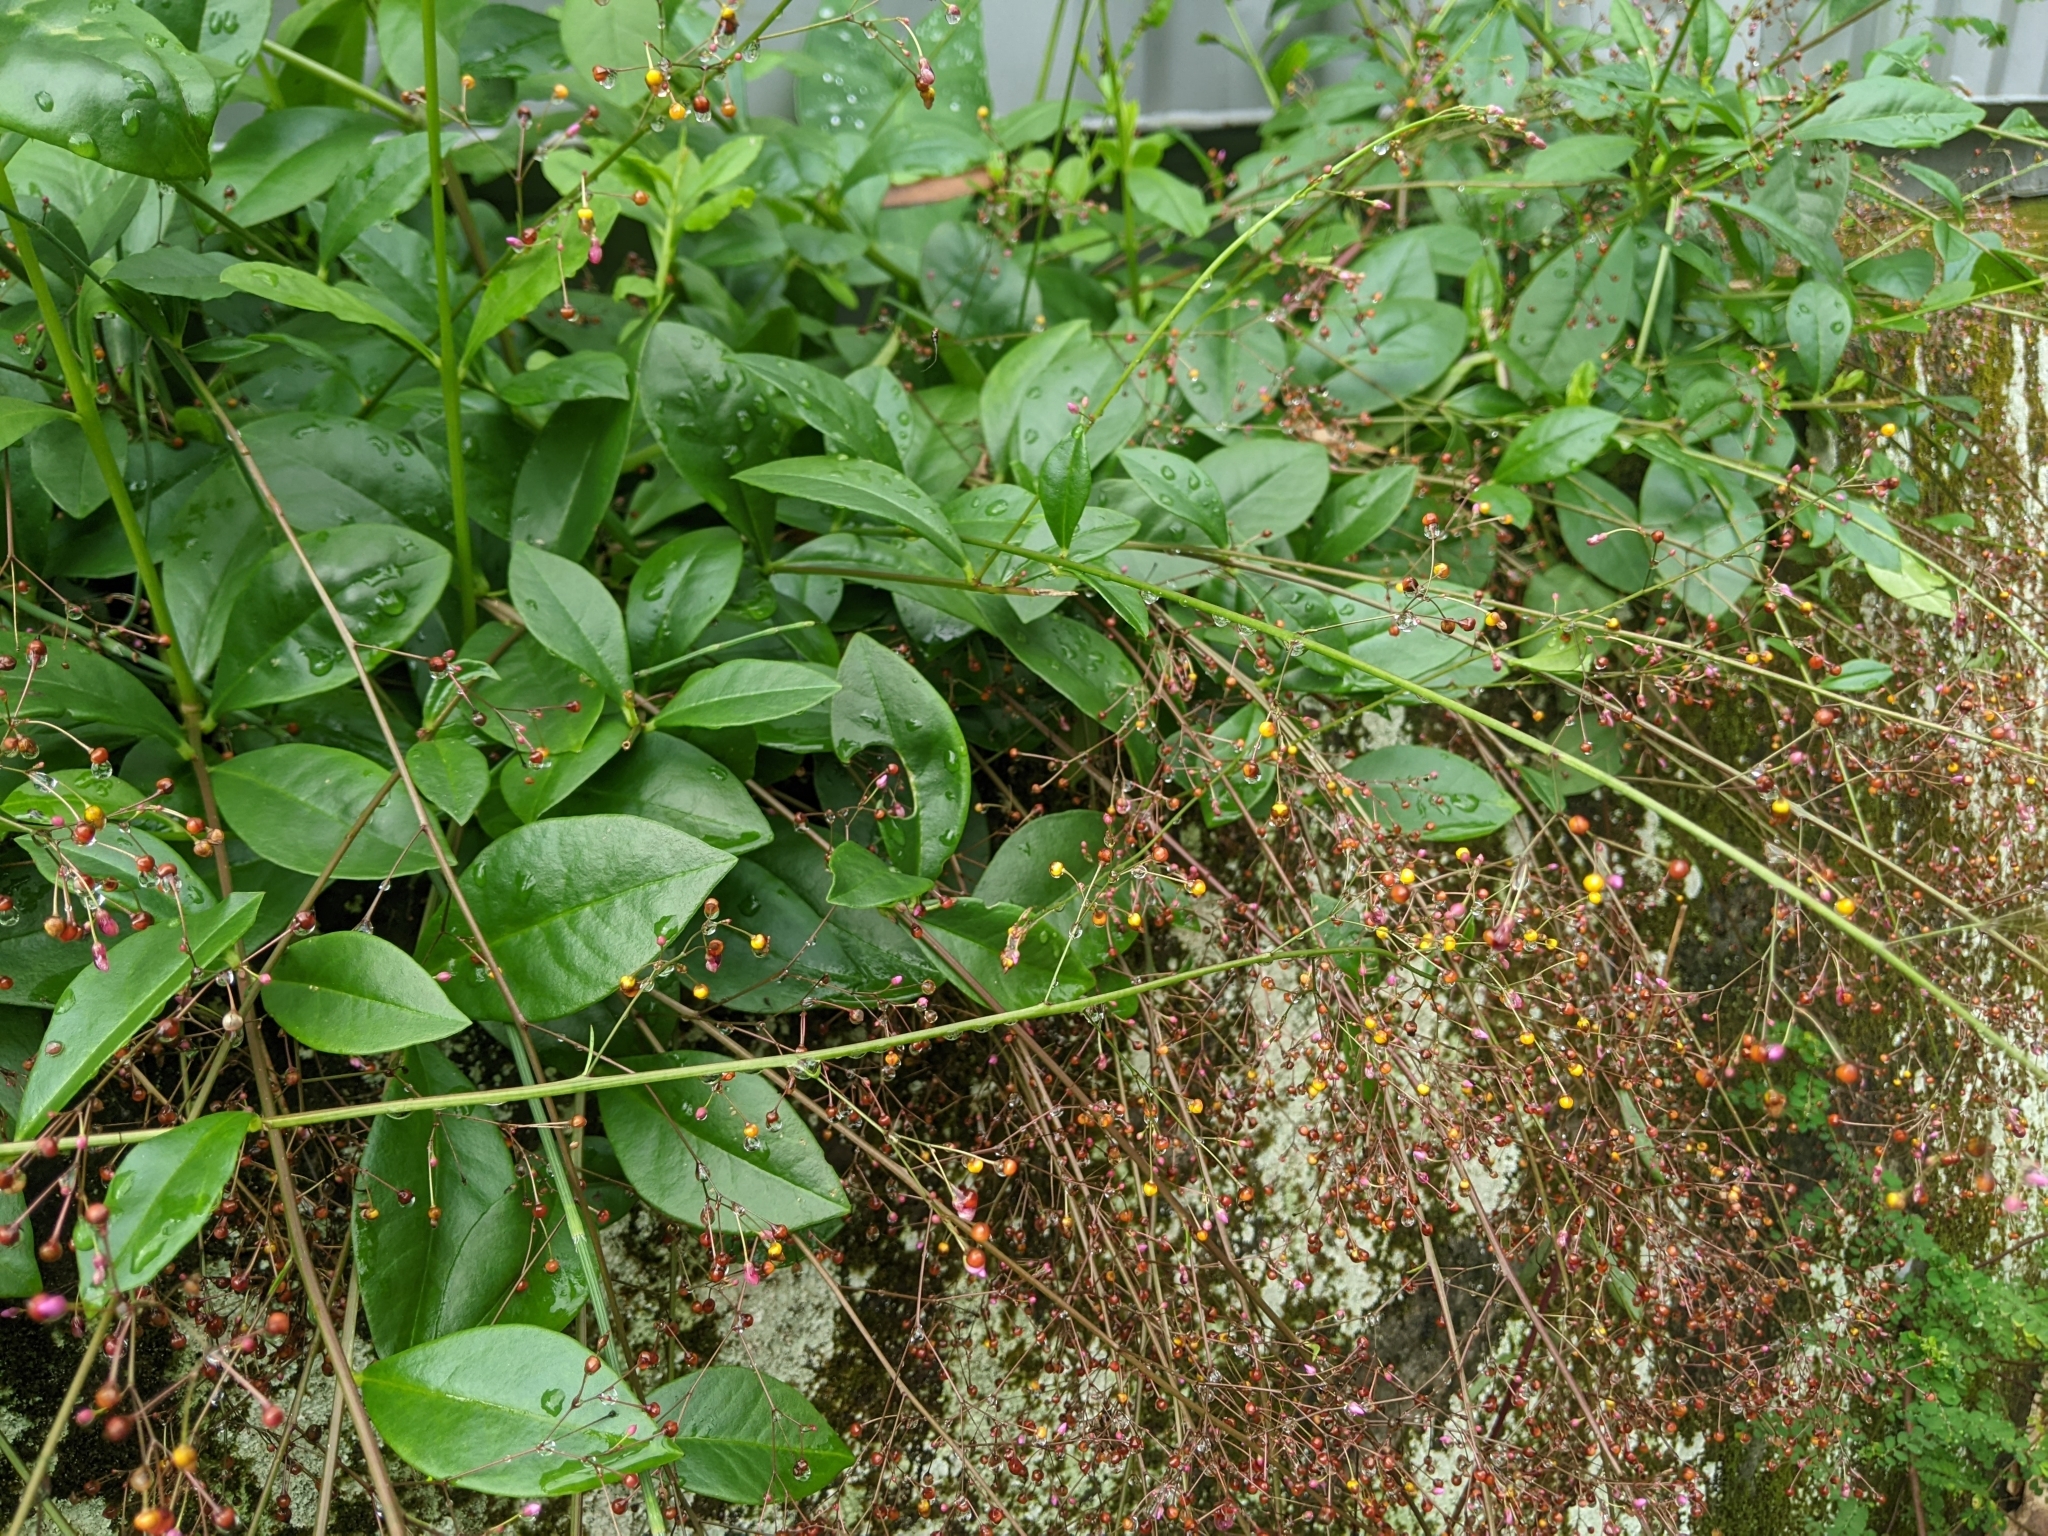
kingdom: Plantae
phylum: Tracheophyta
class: Magnoliopsida
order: Caryophyllales
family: Talinaceae
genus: Talinum
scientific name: Talinum paniculatum
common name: Jewels of opar
